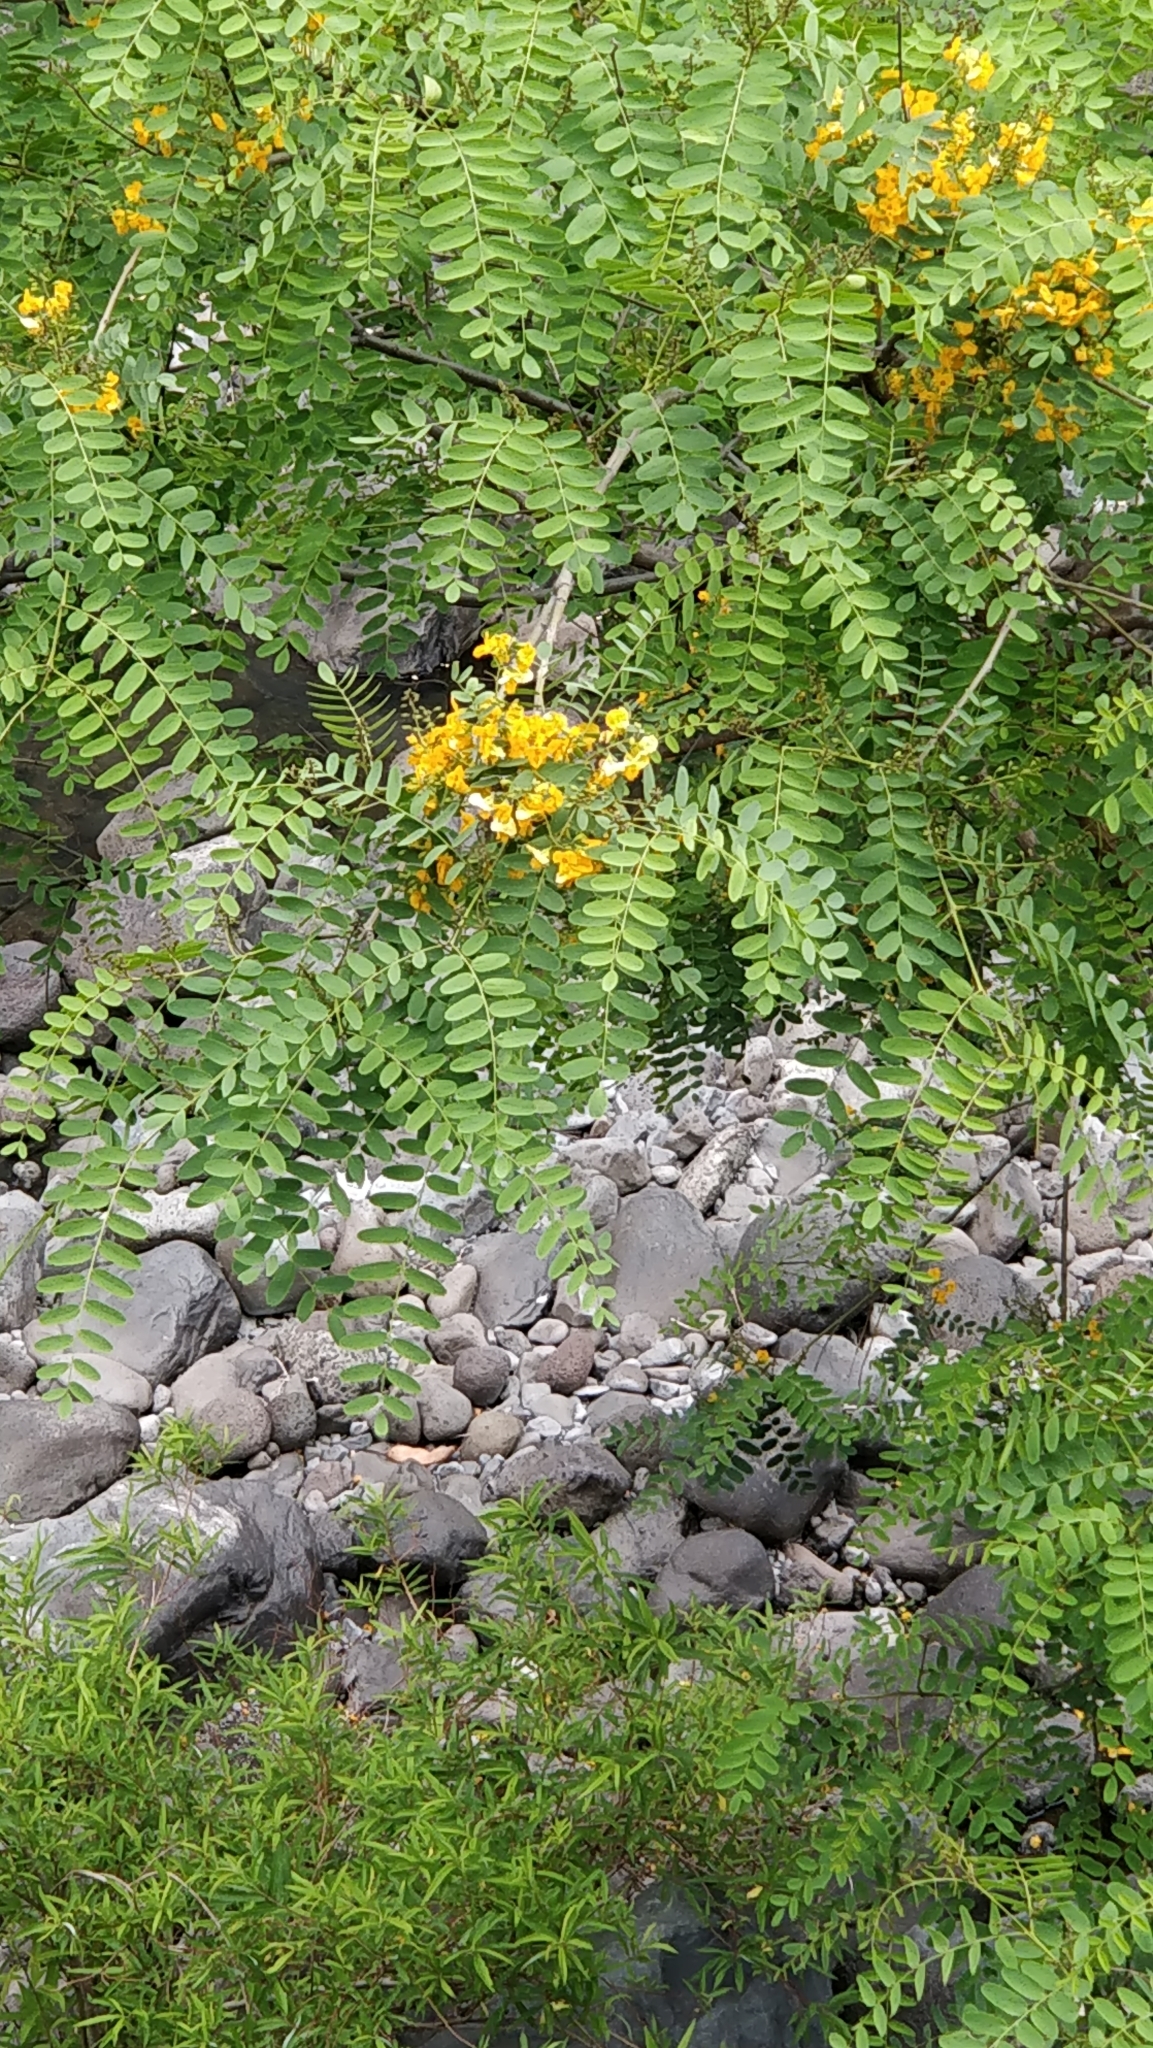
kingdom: Plantae
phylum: Tracheophyta
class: Magnoliopsida
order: Fabales
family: Fabaceae
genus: Tipuana
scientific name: Tipuana tipu
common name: Tiputree
